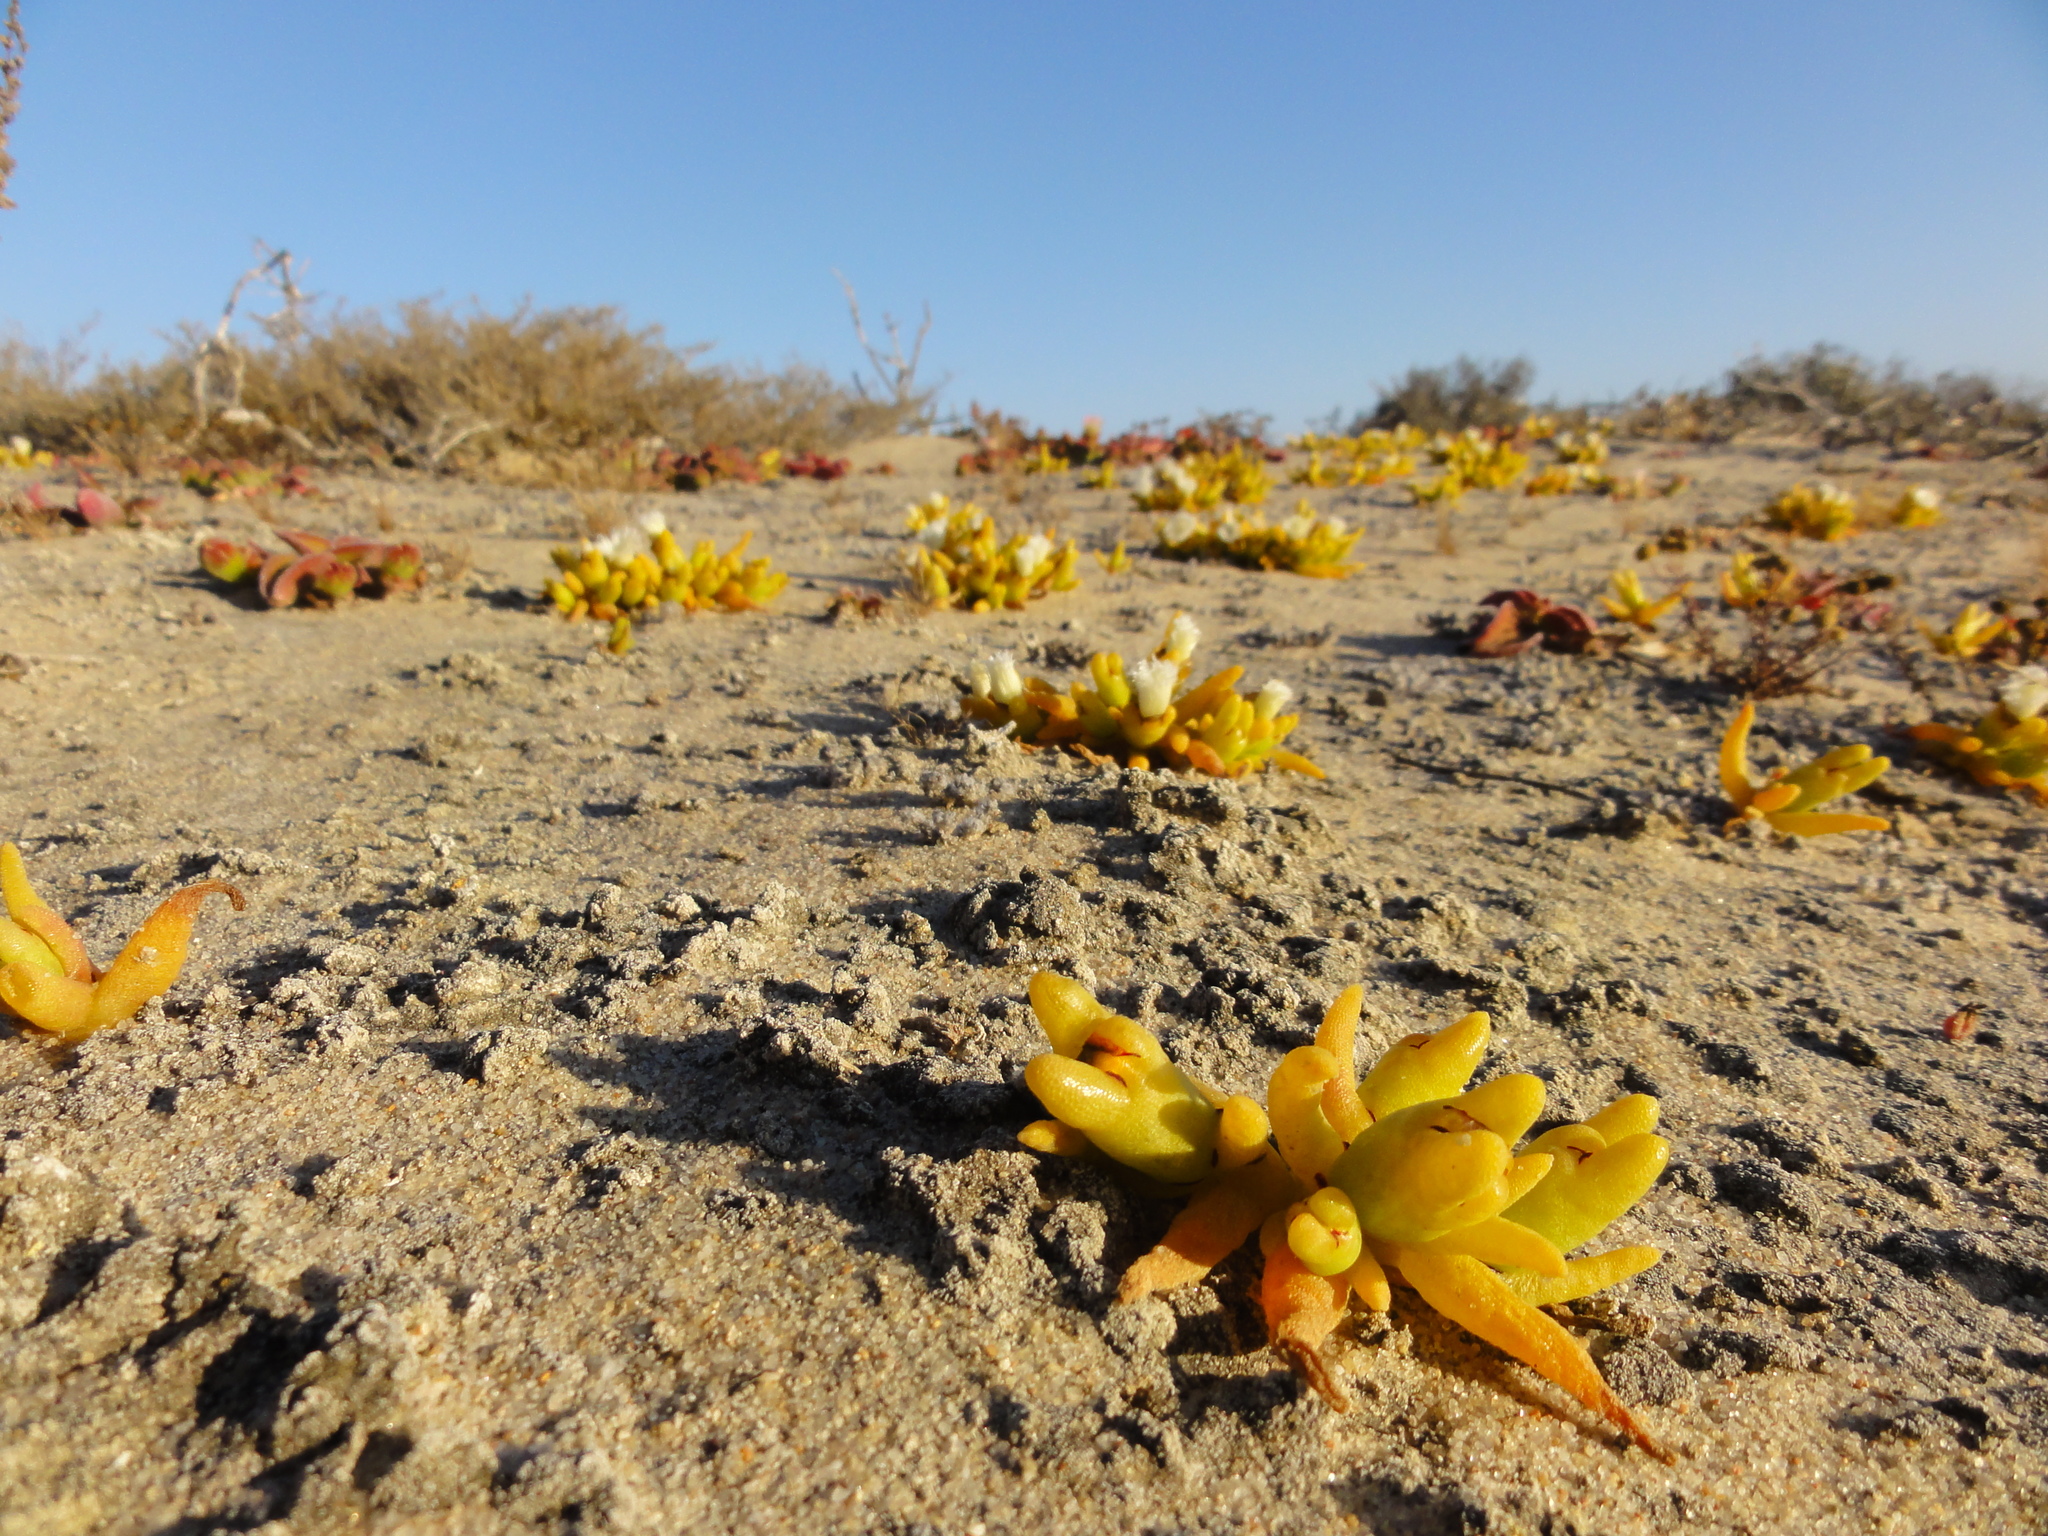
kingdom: Plantae
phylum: Tracheophyta
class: Magnoliopsida
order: Caryophyllales
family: Aizoaceae
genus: Mesembryanthemum
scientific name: Mesembryanthemum hypertrophicum
